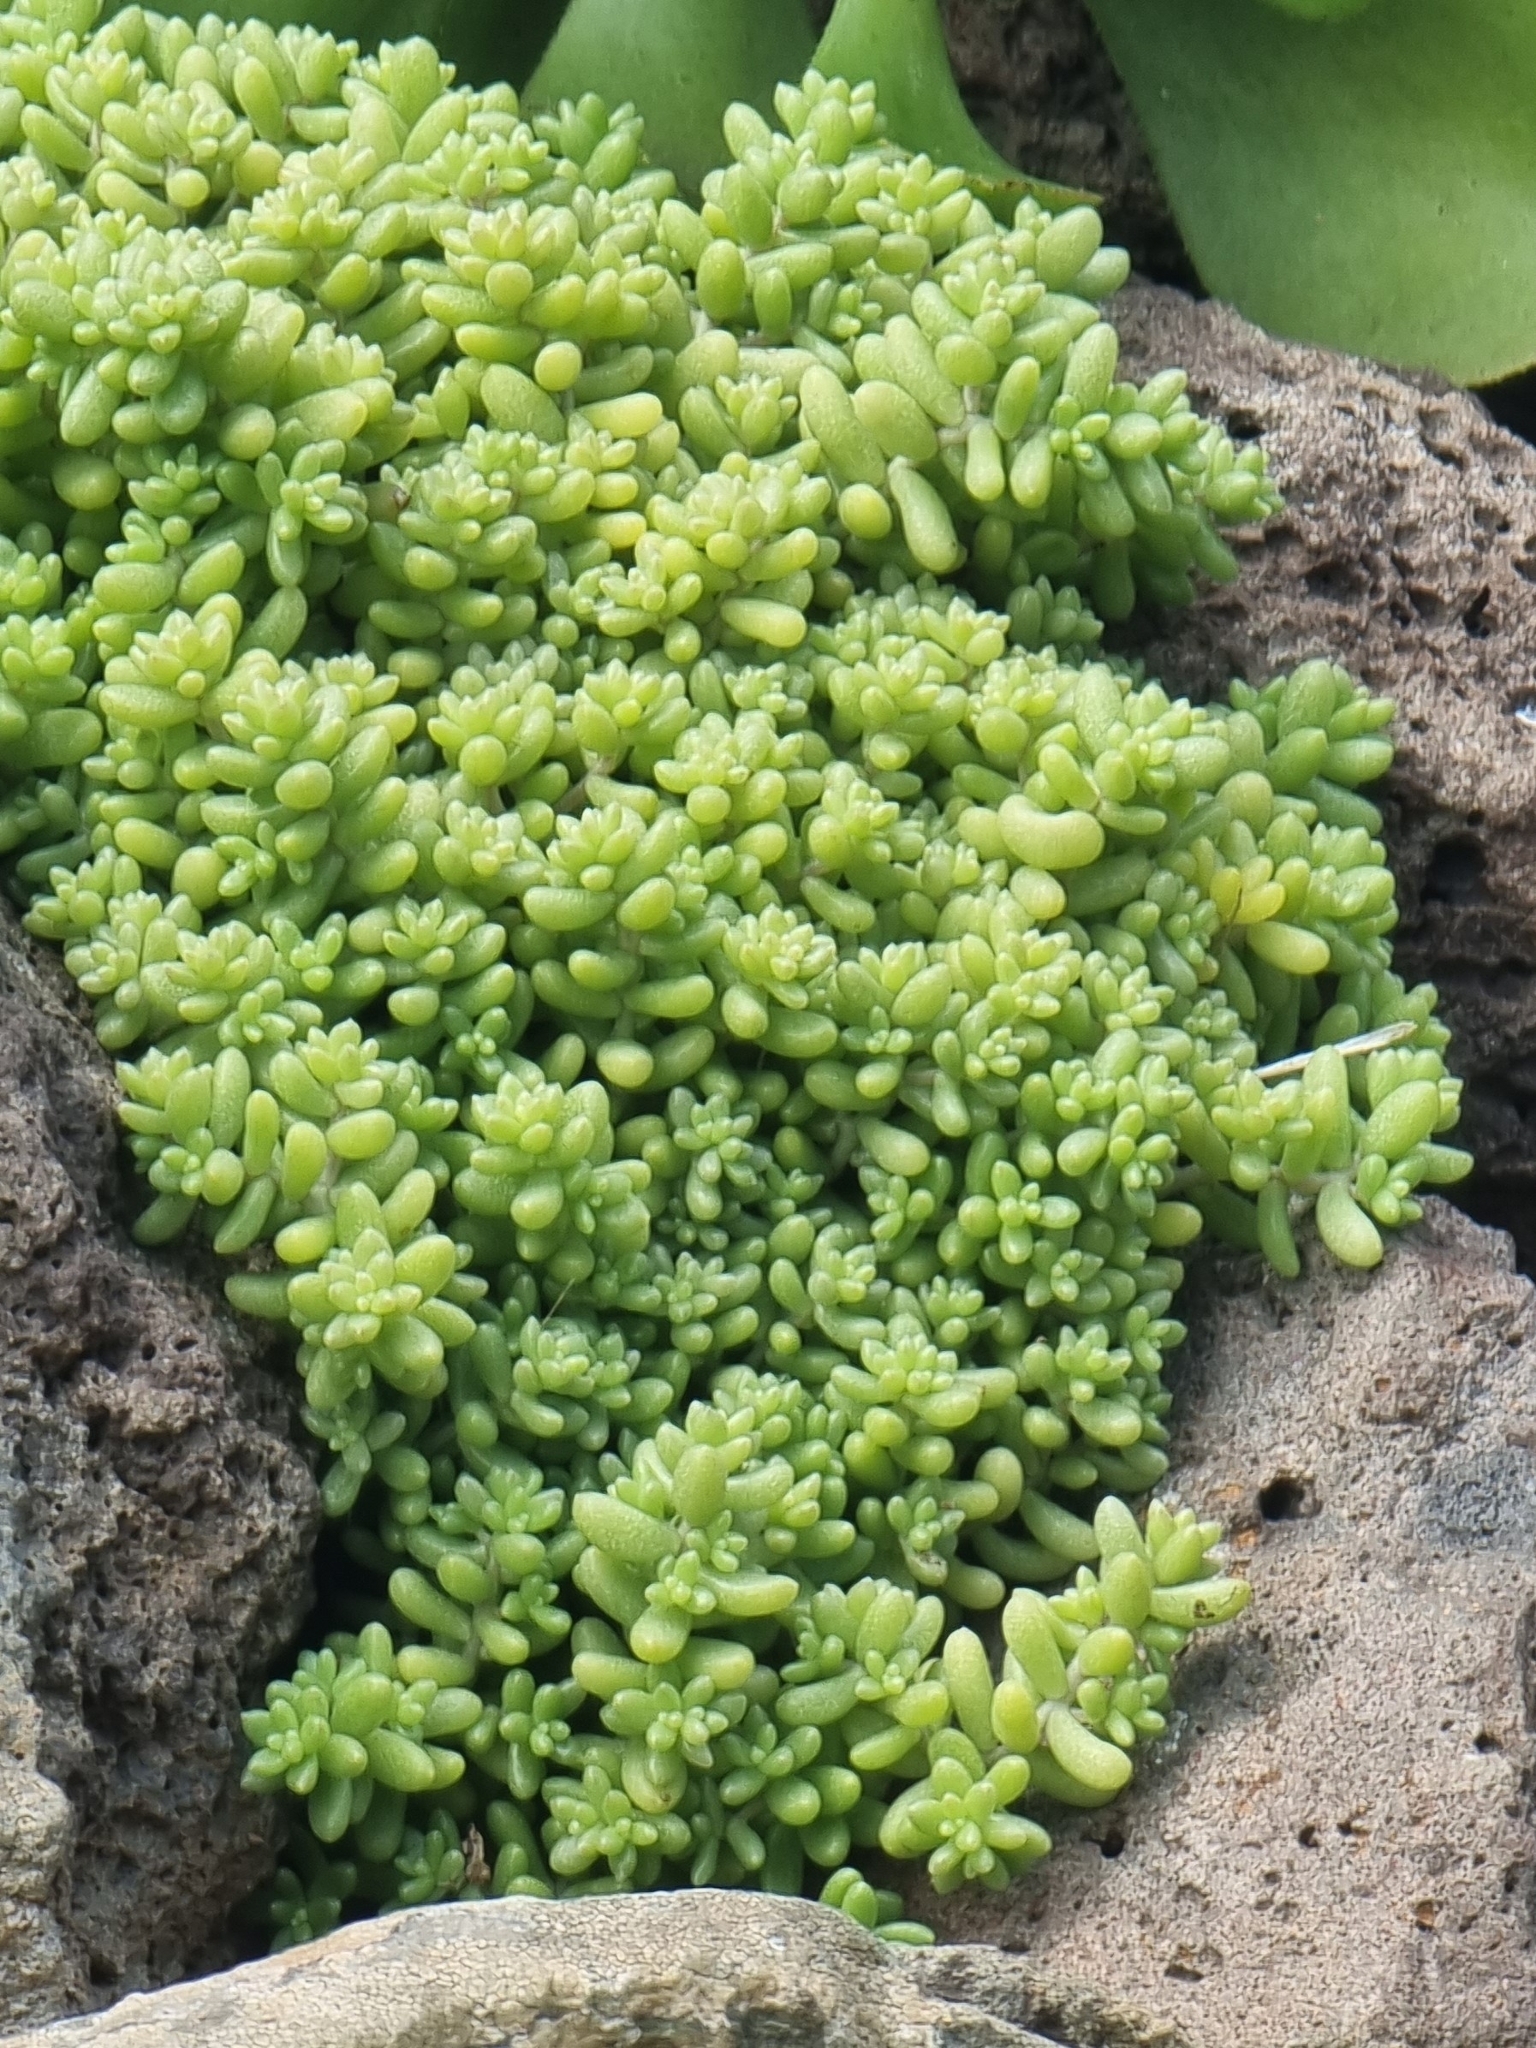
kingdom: Plantae
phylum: Tracheophyta
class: Magnoliopsida
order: Saxifragales
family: Crassulaceae
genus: Sedum
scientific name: Sedum nudum
